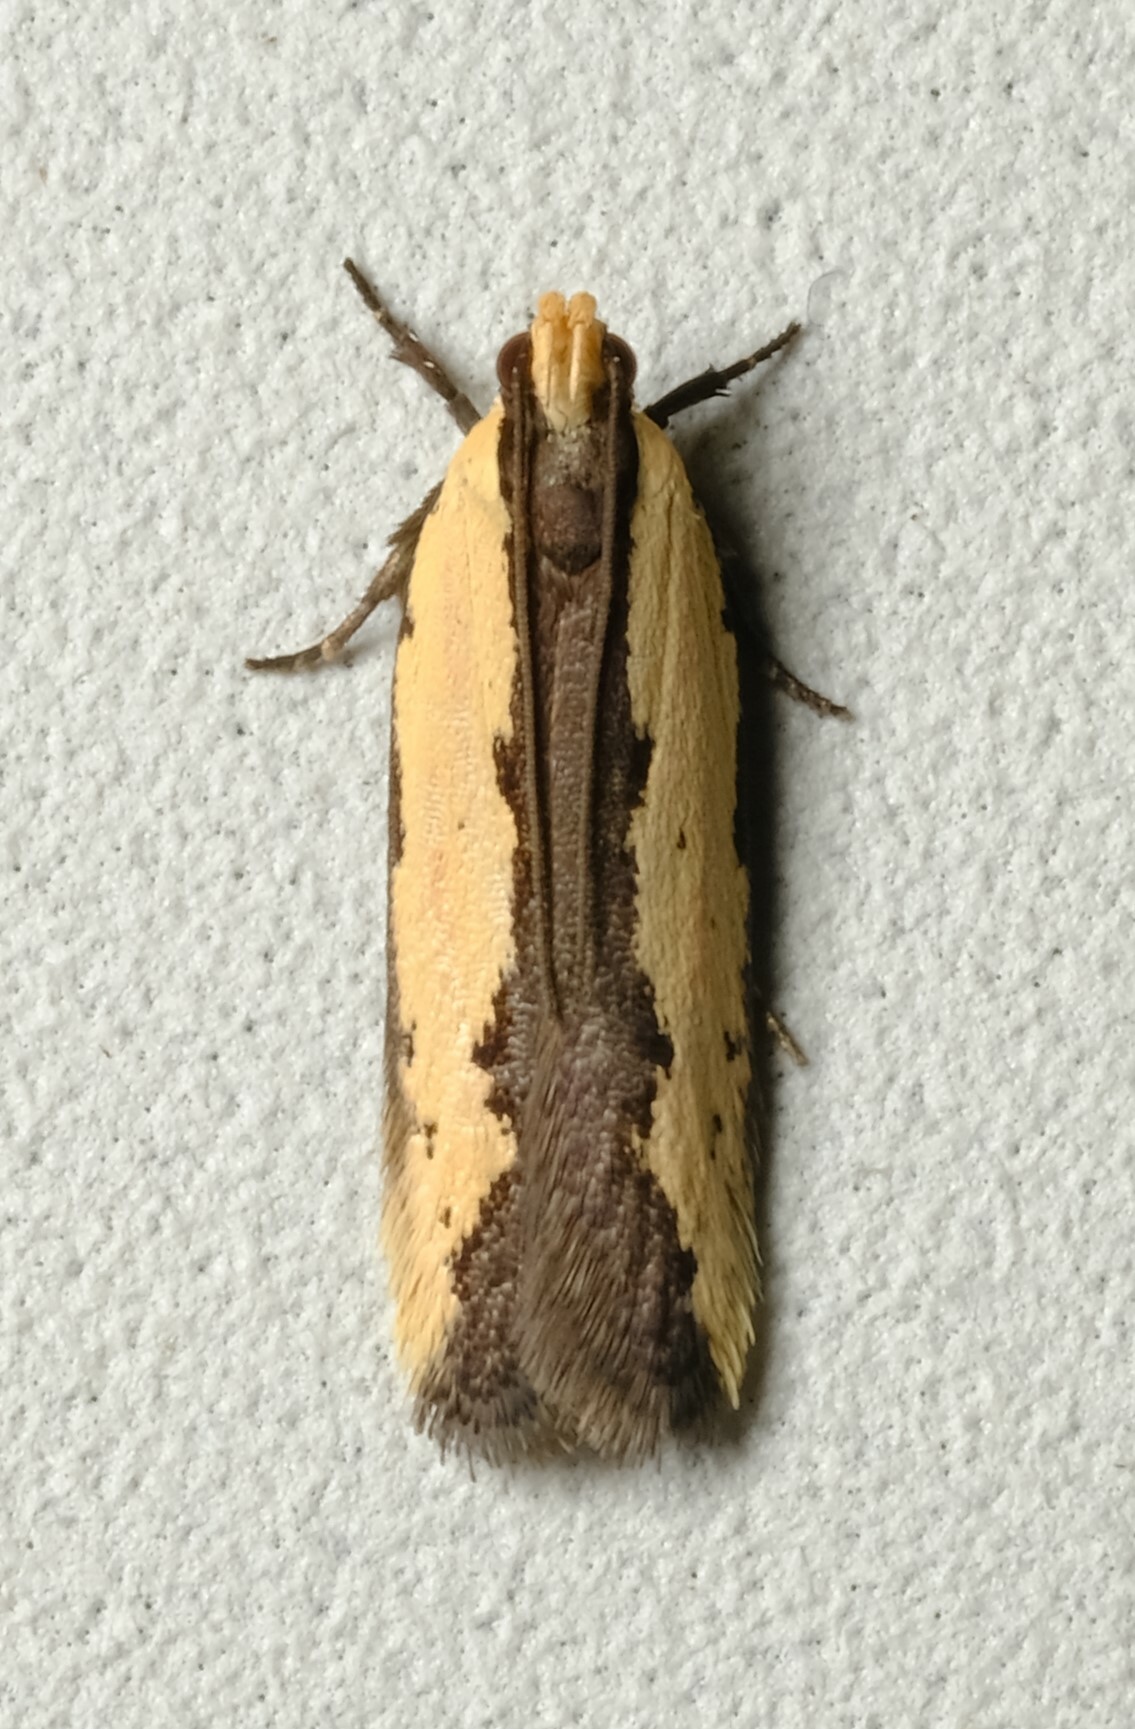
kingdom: Animalia
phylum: Arthropoda
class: Insecta
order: Lepidoptera
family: Gelechiidae
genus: Ardozyga
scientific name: Ardozyga catarrhacta
